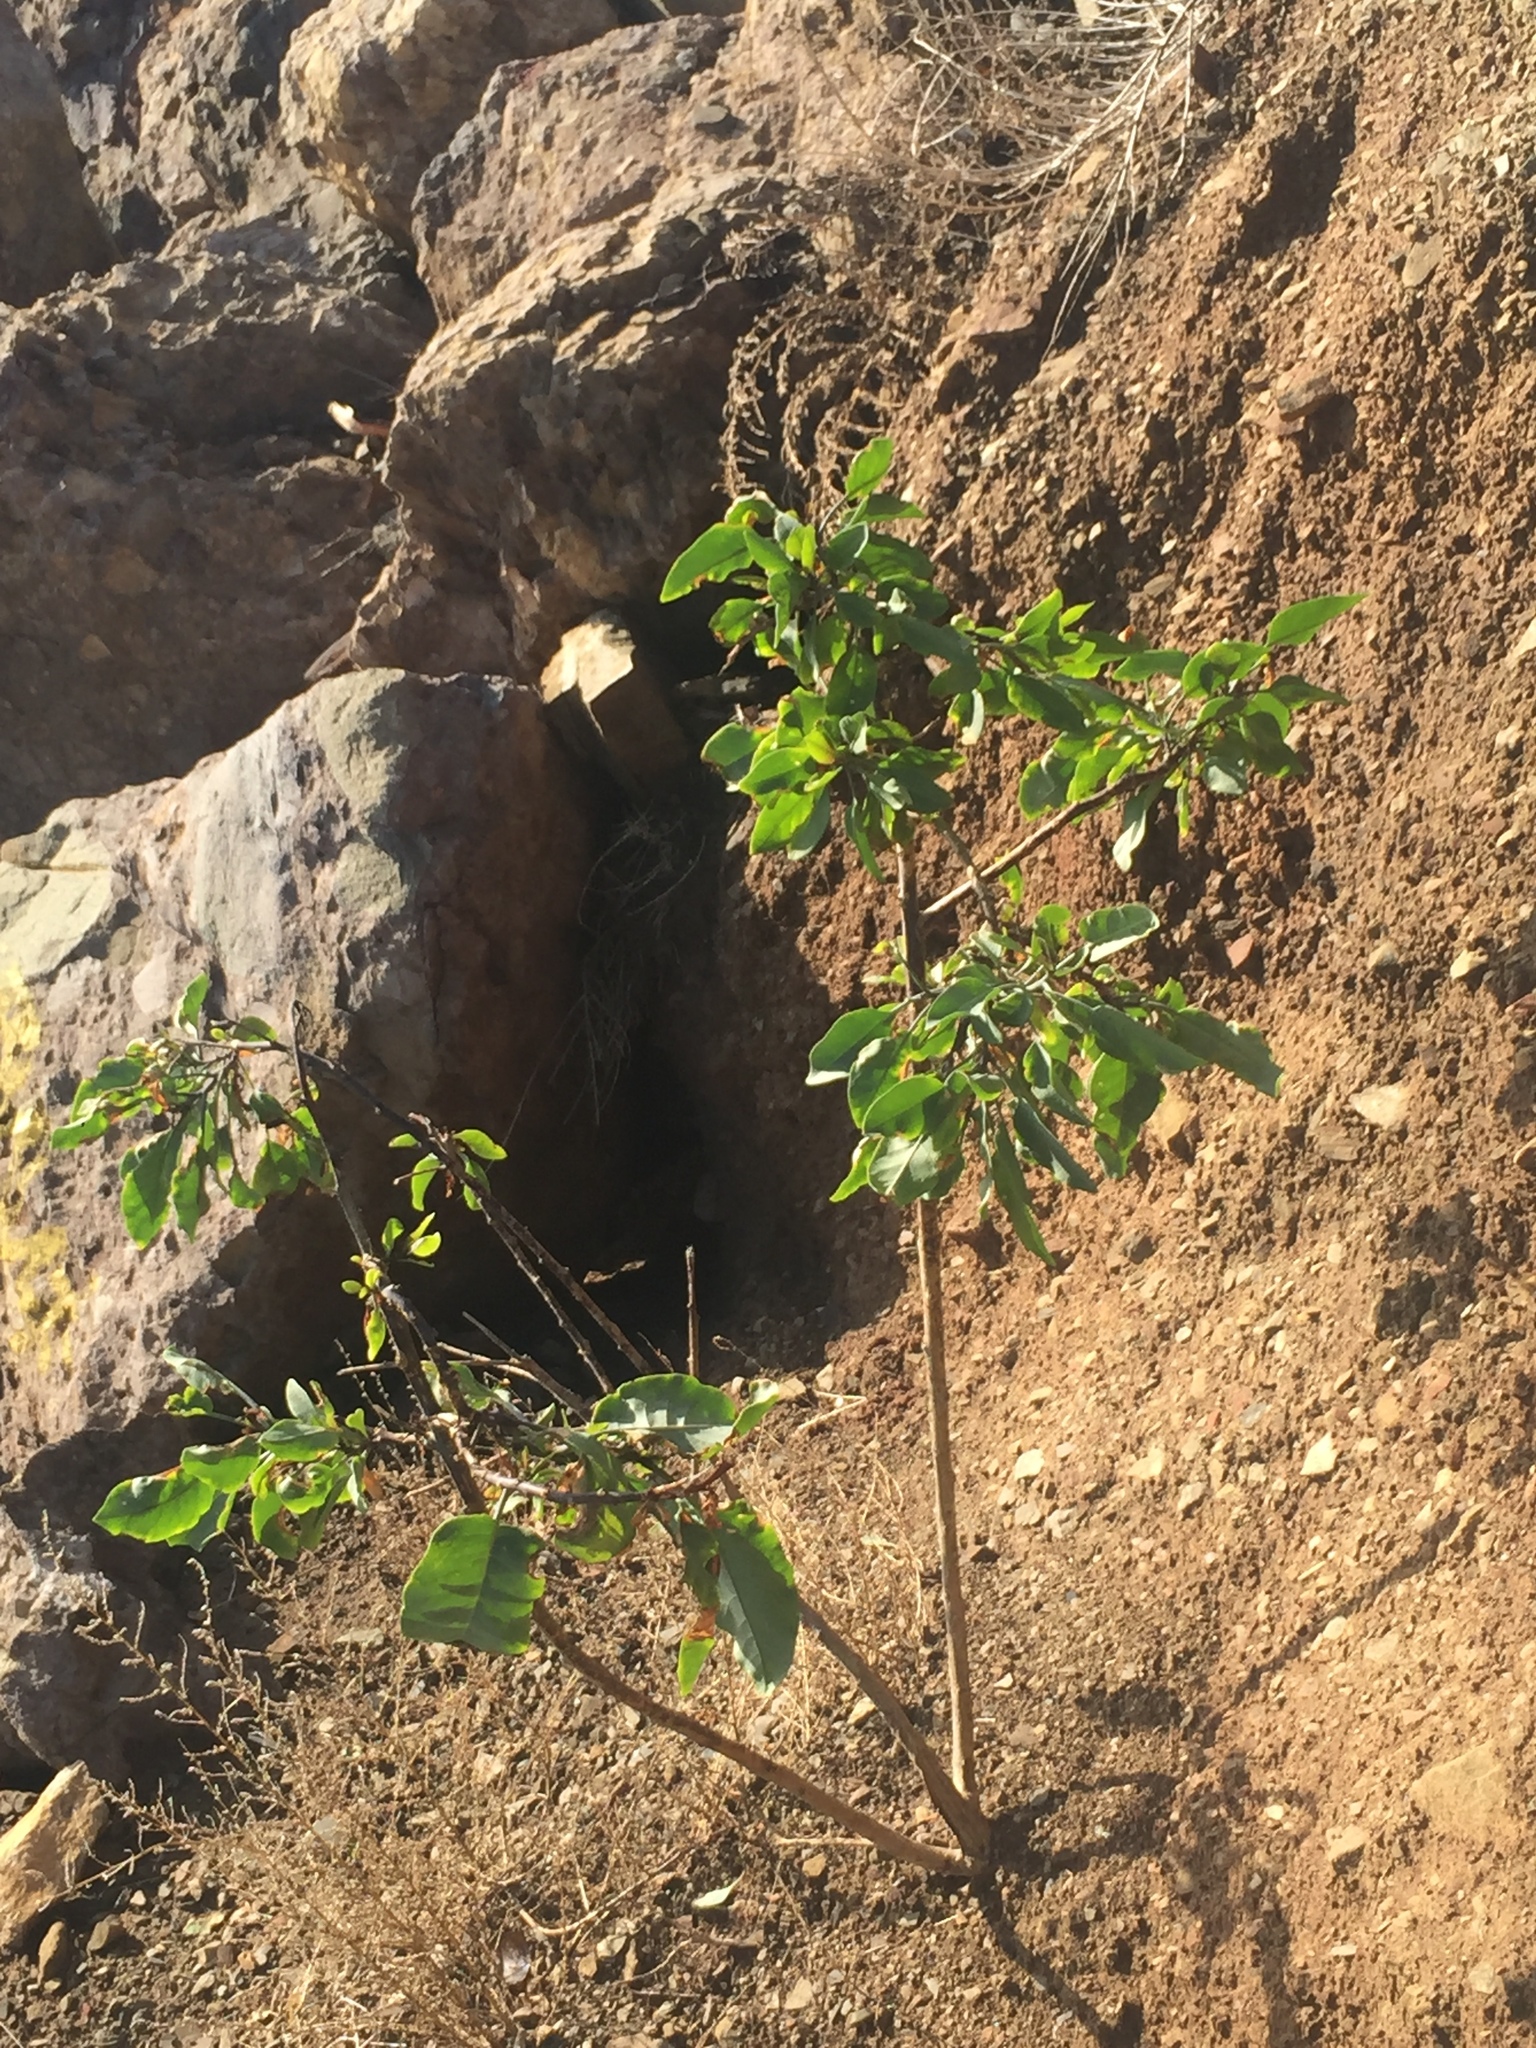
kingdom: Plantae
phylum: Tracheophyta
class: Magnoliopsida
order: Solanales
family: Solanaceae
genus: Nicotiana
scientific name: Nicotiana glauca
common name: Tree tobacco
